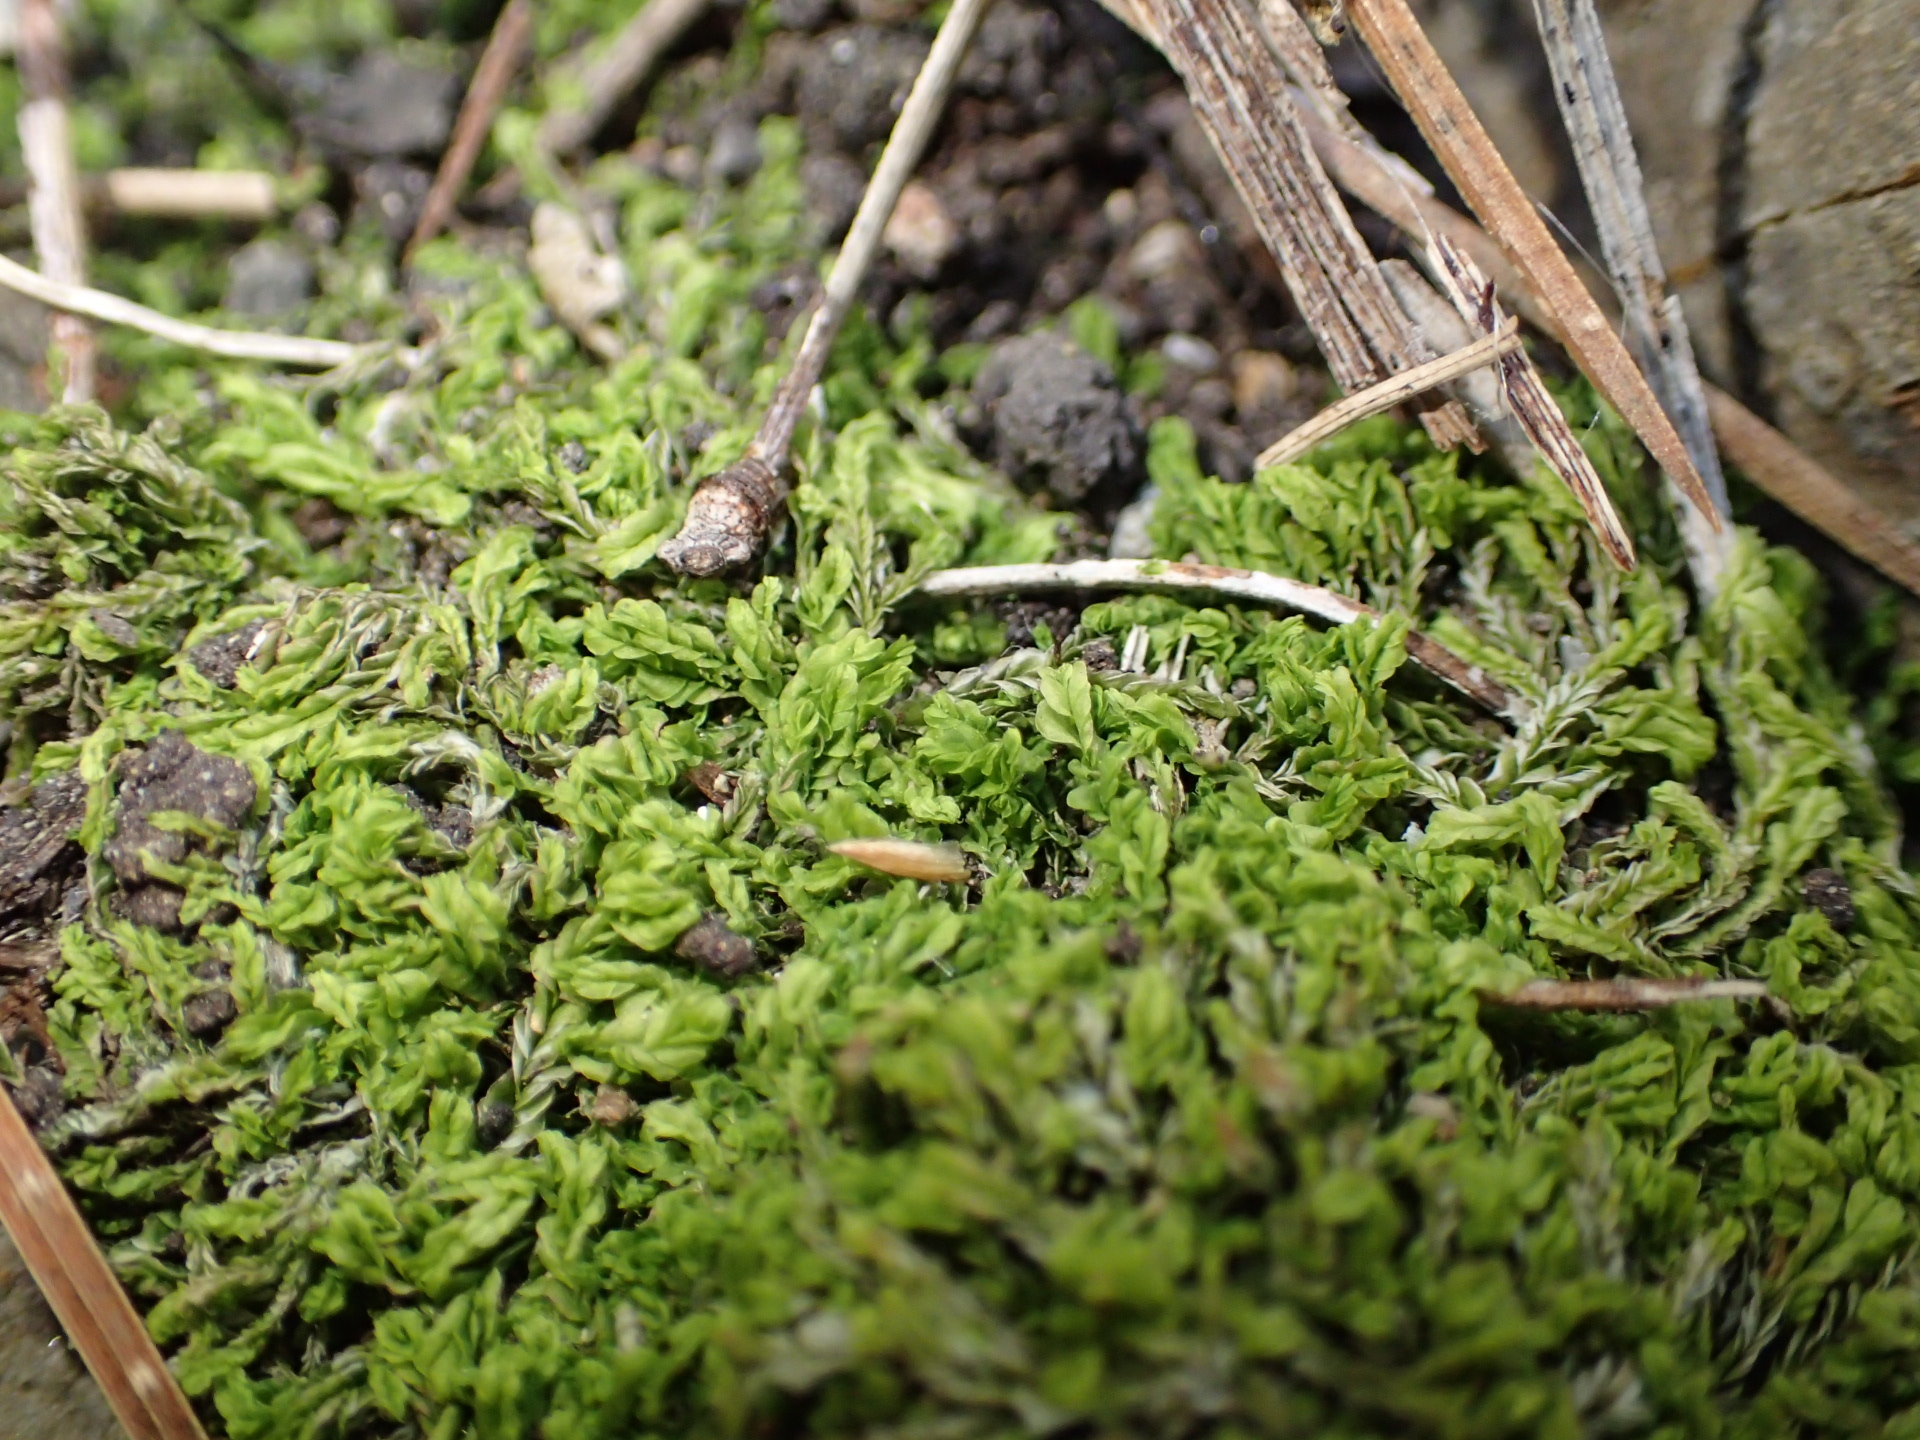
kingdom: Plantae
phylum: Marchantiophyta
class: Jungermanniopsida
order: Jungermanniales
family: Lophocoleaceae
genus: Lophocolea
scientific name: Lophocolea semiteres
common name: Southern crestwort
